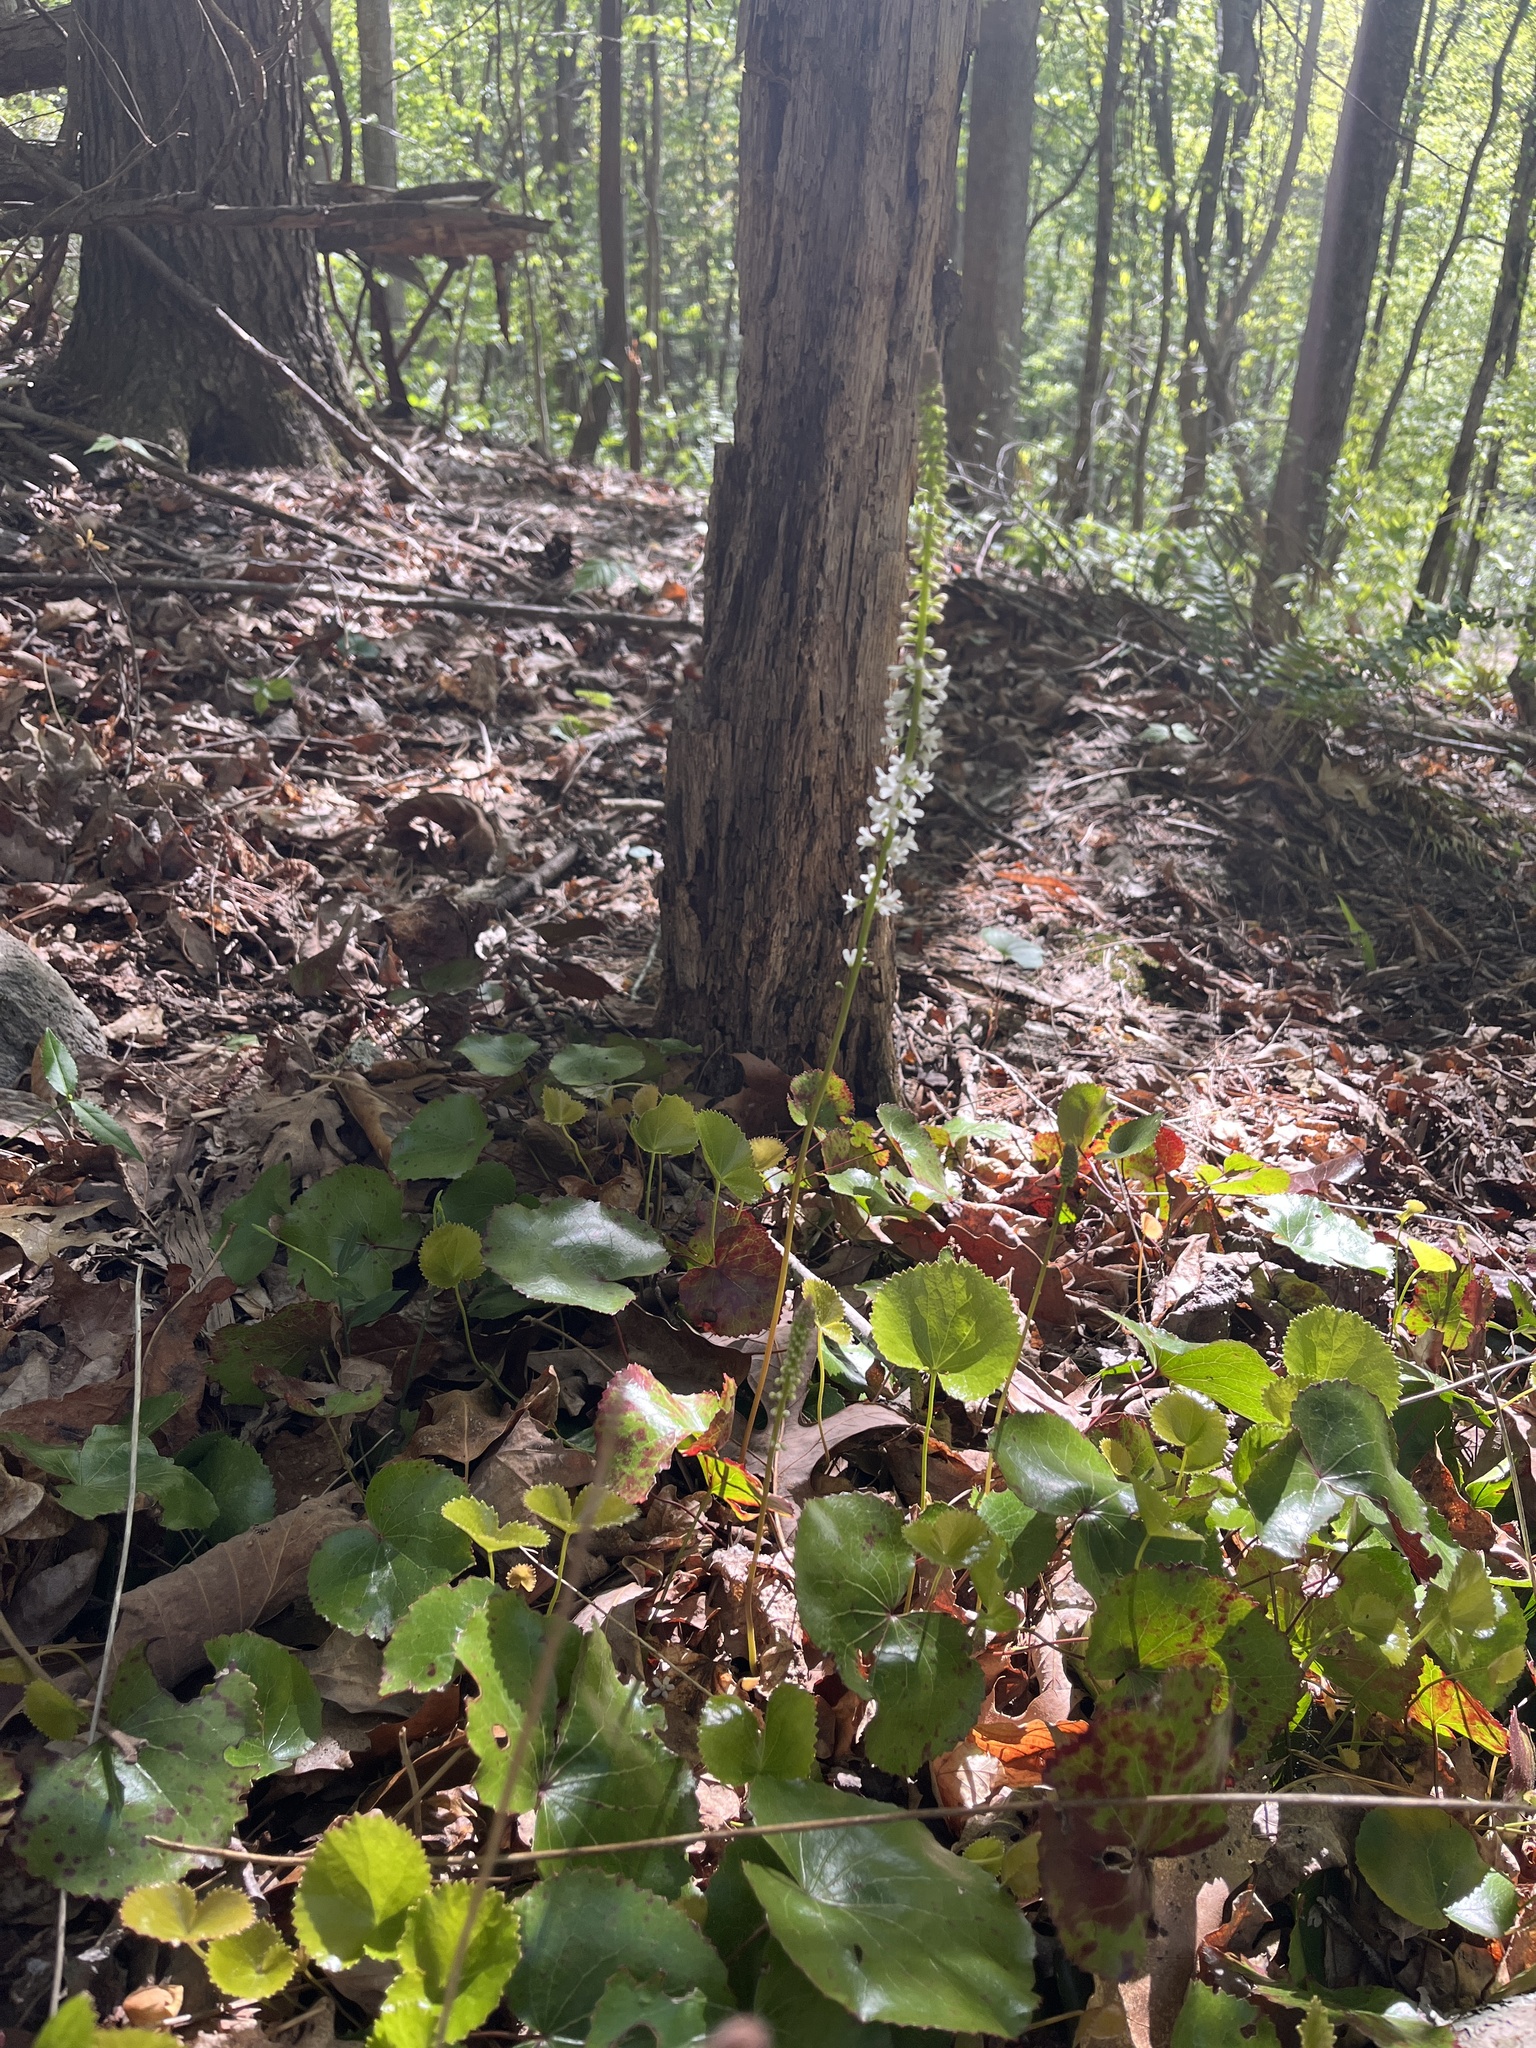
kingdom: Plantae
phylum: Tracheophyta
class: Magnoliopsida
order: Ericales
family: Diapensiaceae
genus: Galax
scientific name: Galax urceolata
